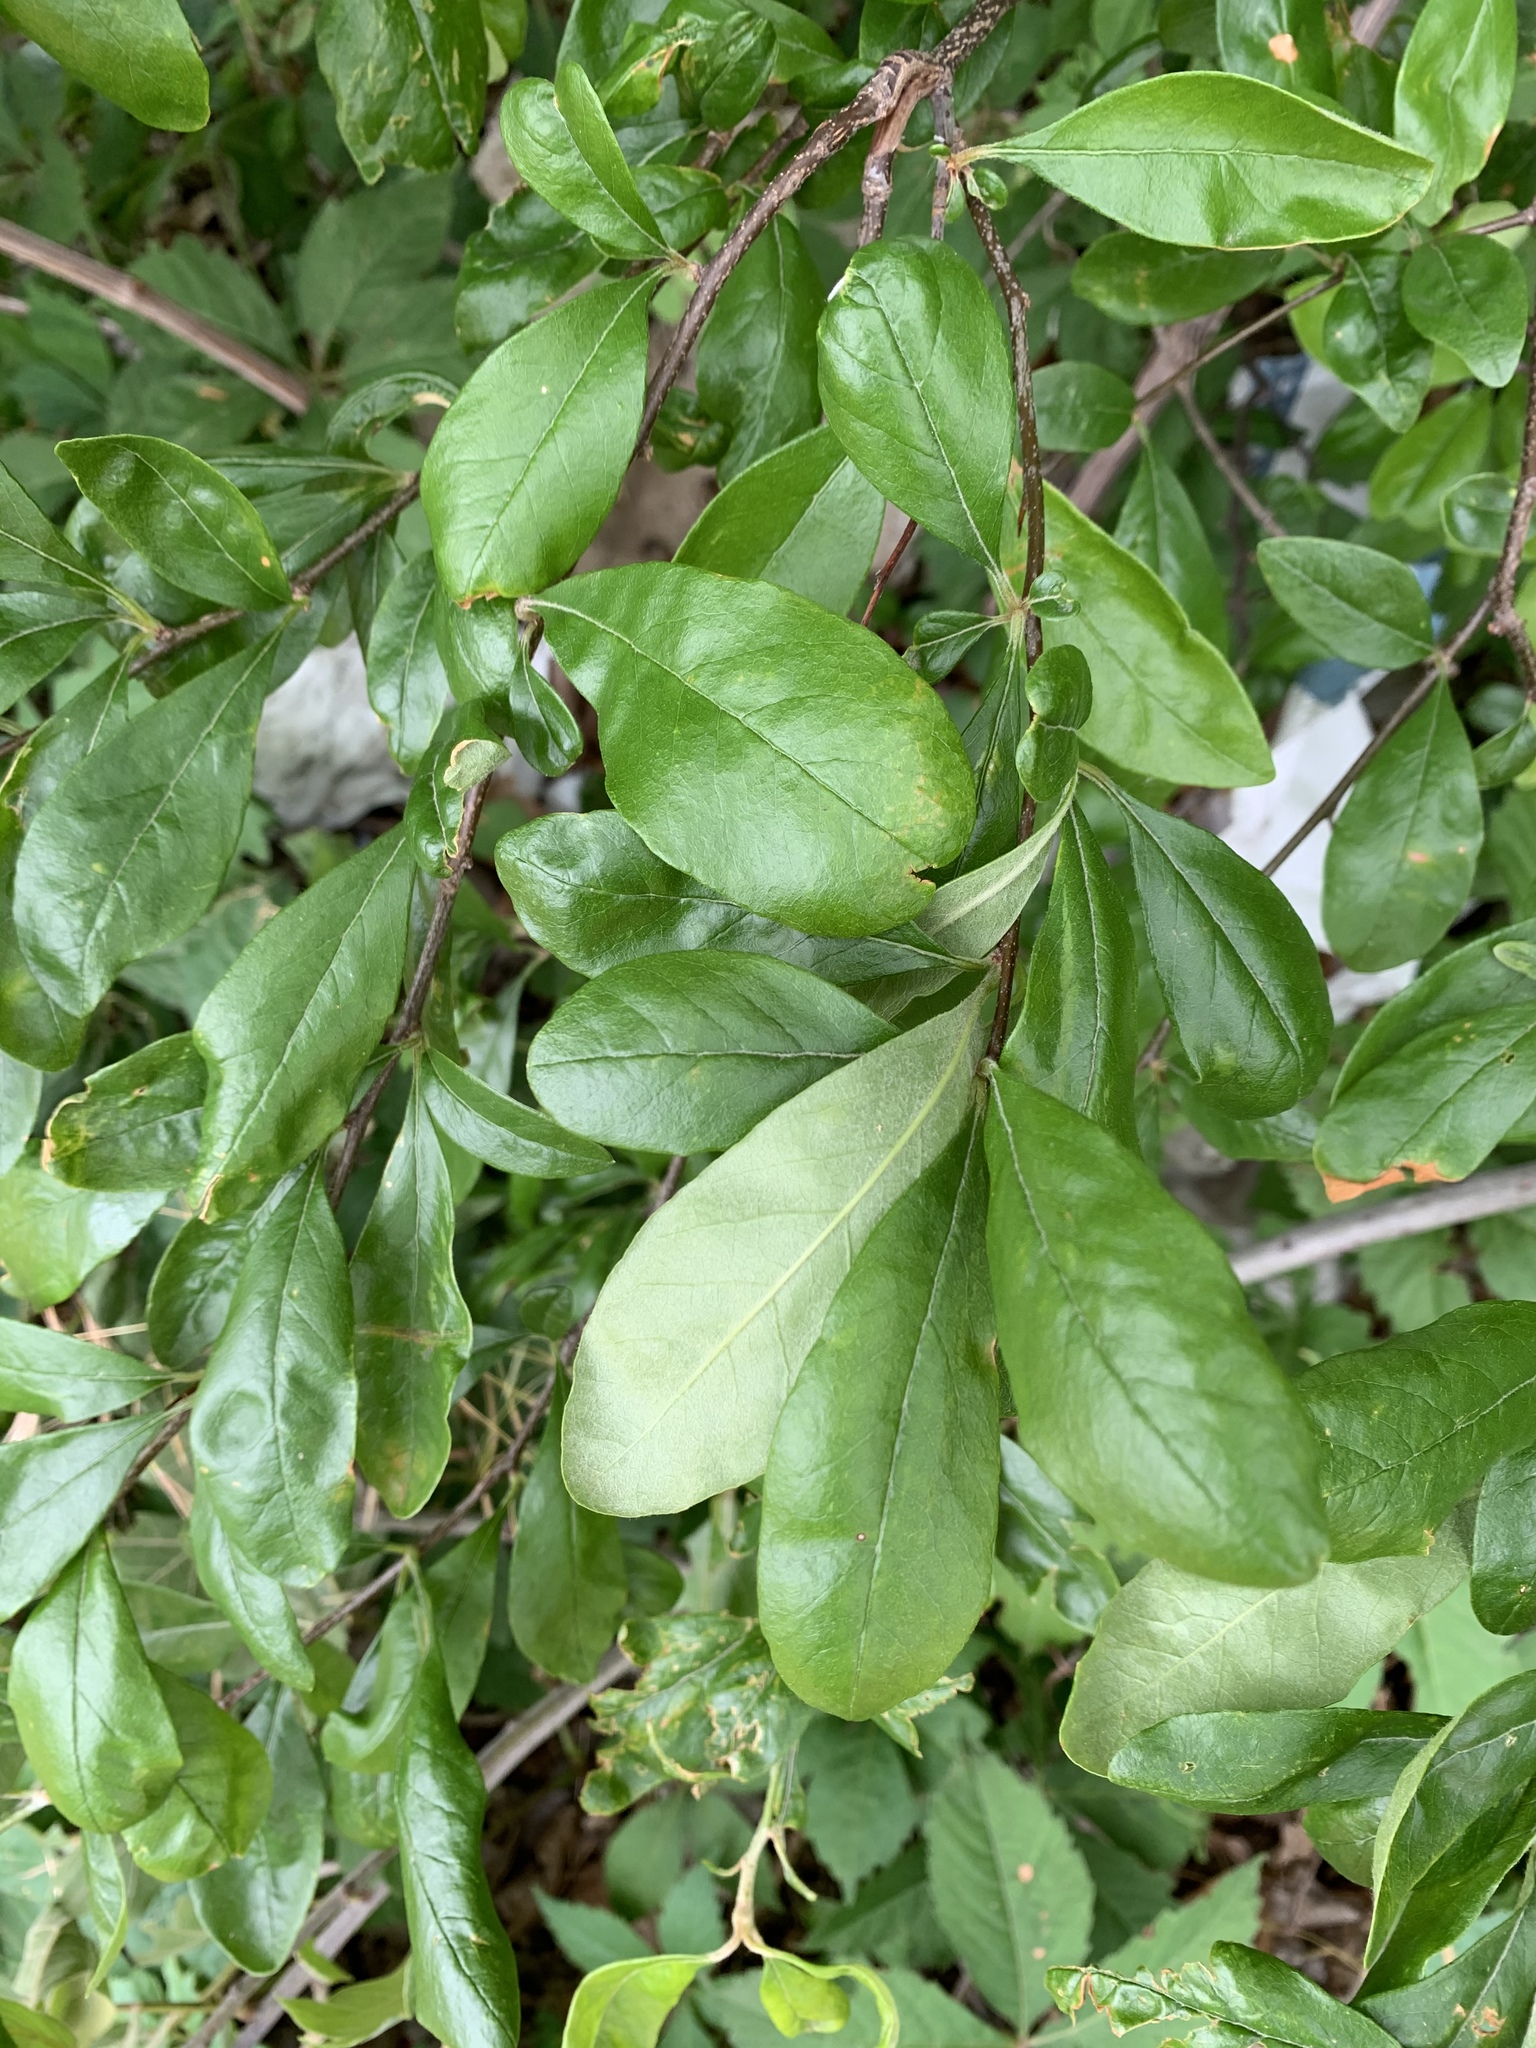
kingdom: Plantae
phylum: Tracheophyta
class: Magnoliopsida
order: Ericales
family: Sapotaceae
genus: Sideroxylon
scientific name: Sideroxylon lanuginosum
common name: Chittamwood
